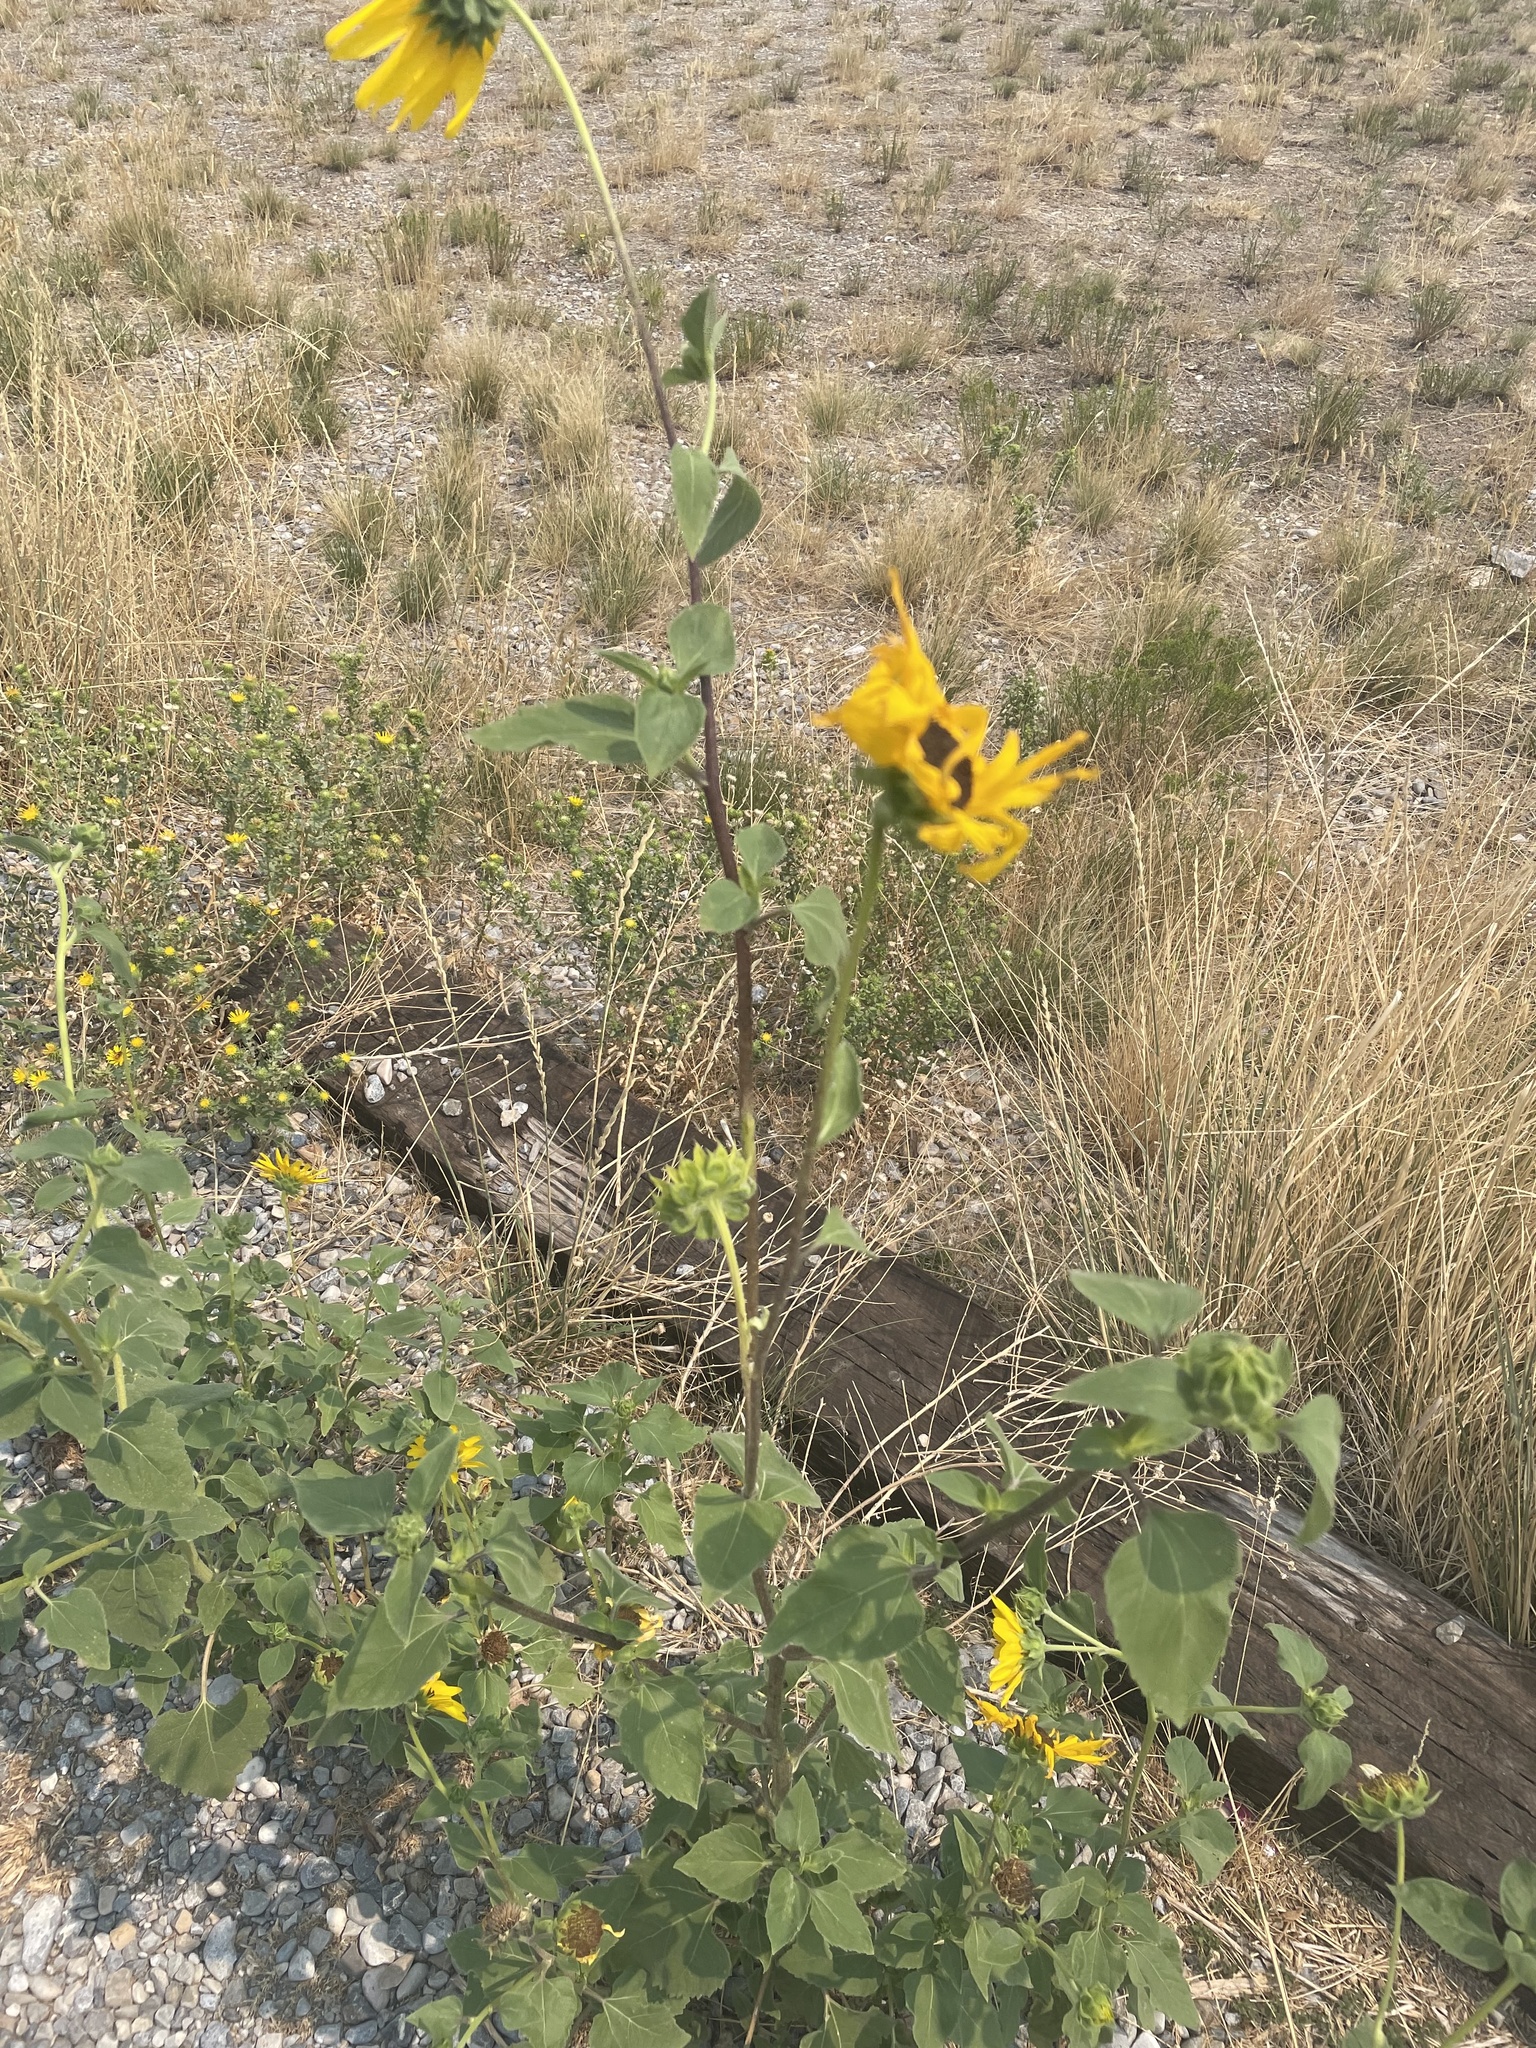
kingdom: Plantae
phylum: Tracheophyta
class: Magnoliopsida
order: Asterales
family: Asteraceae
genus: Helianthus
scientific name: Helianthus petiolaris
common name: Lesser sunflower
